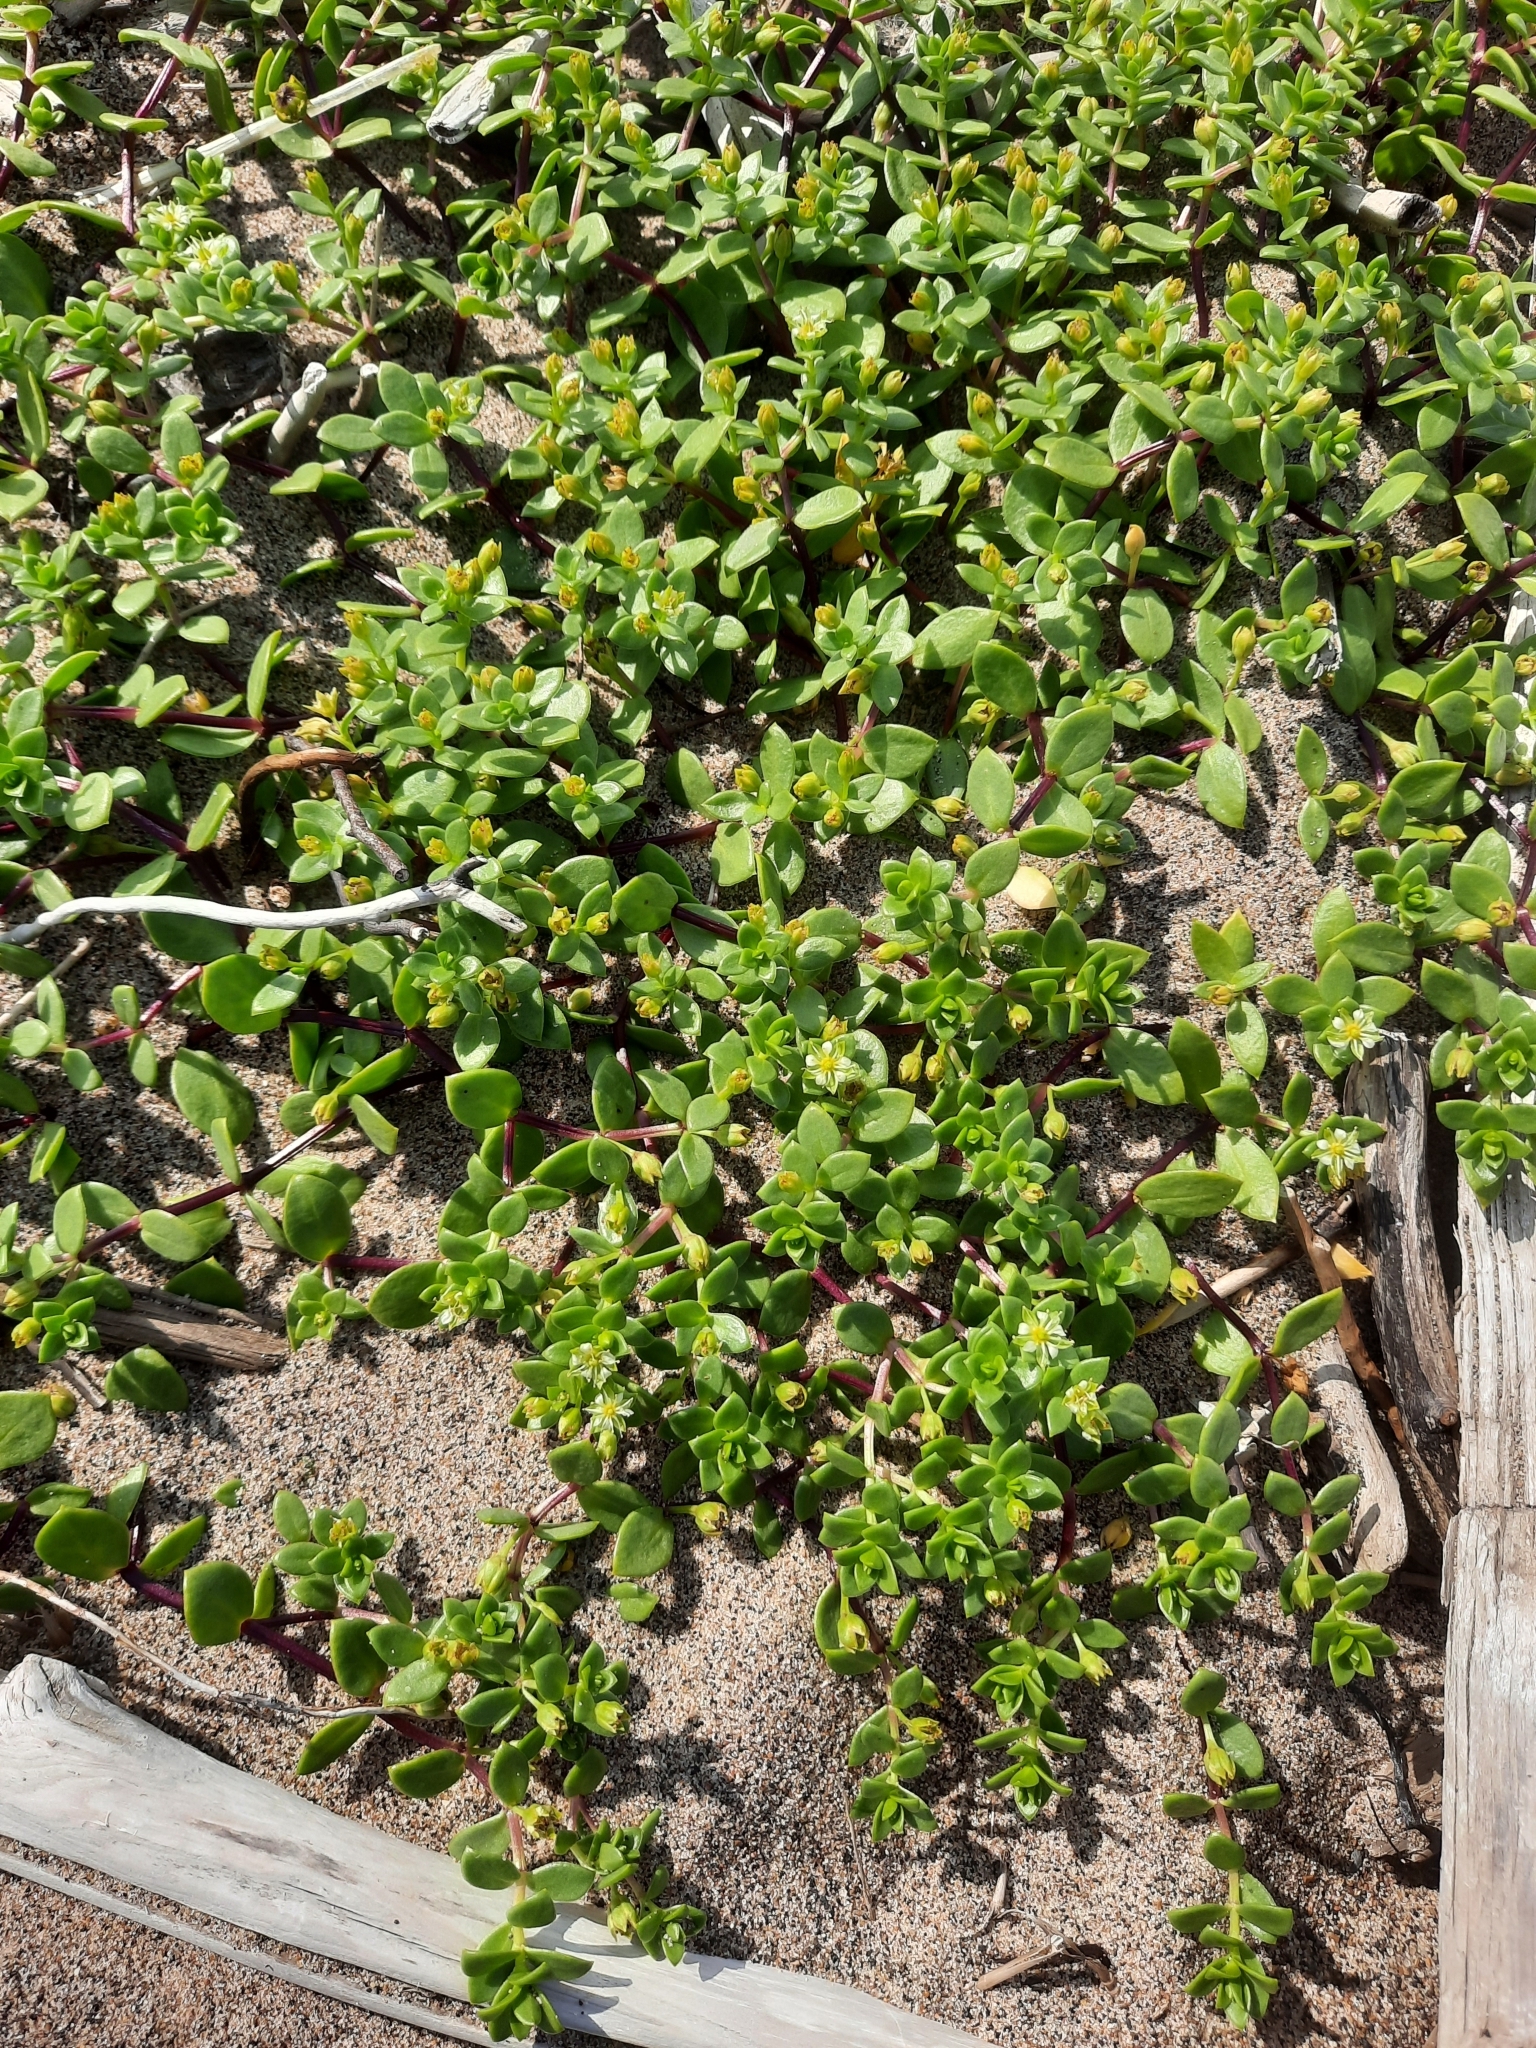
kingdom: Plantae
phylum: Tracheophyta
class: Magnoliopsida
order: Caryophyllales
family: Caryophyllaceae
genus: Honckenya
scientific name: Honckenya peploides
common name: Sea sandwort
